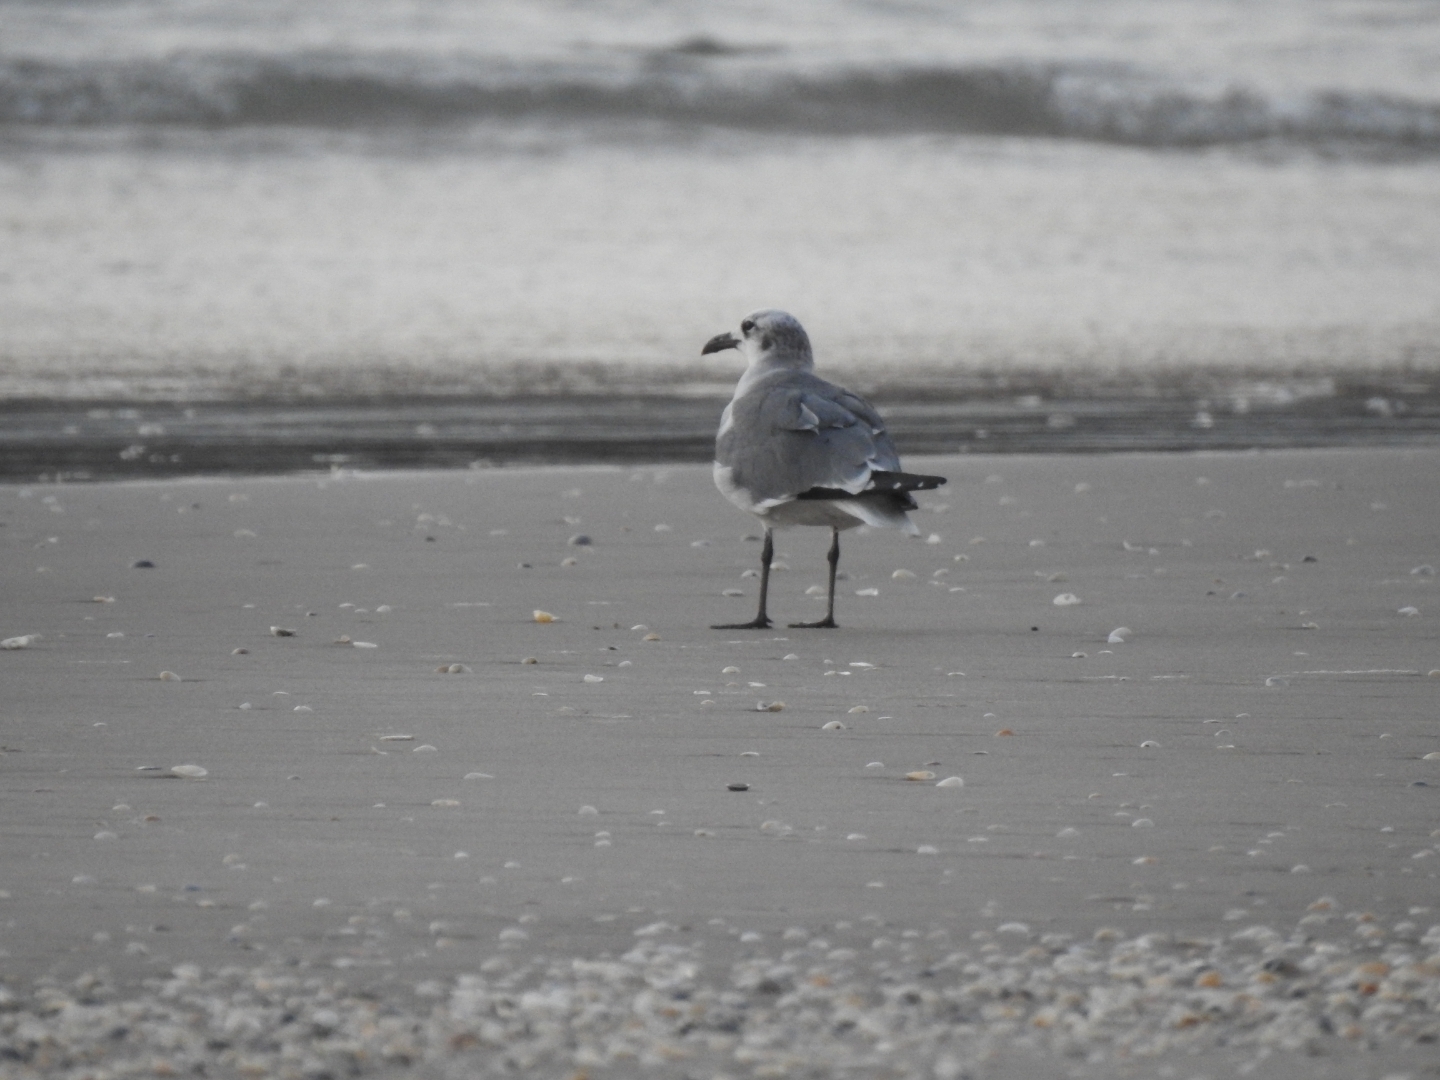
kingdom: Animalia
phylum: Chordata
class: Aves
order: Charadriiformes
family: Laridae
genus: Leucophaeus
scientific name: Leucophaeus atricilla
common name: Laughing gull
